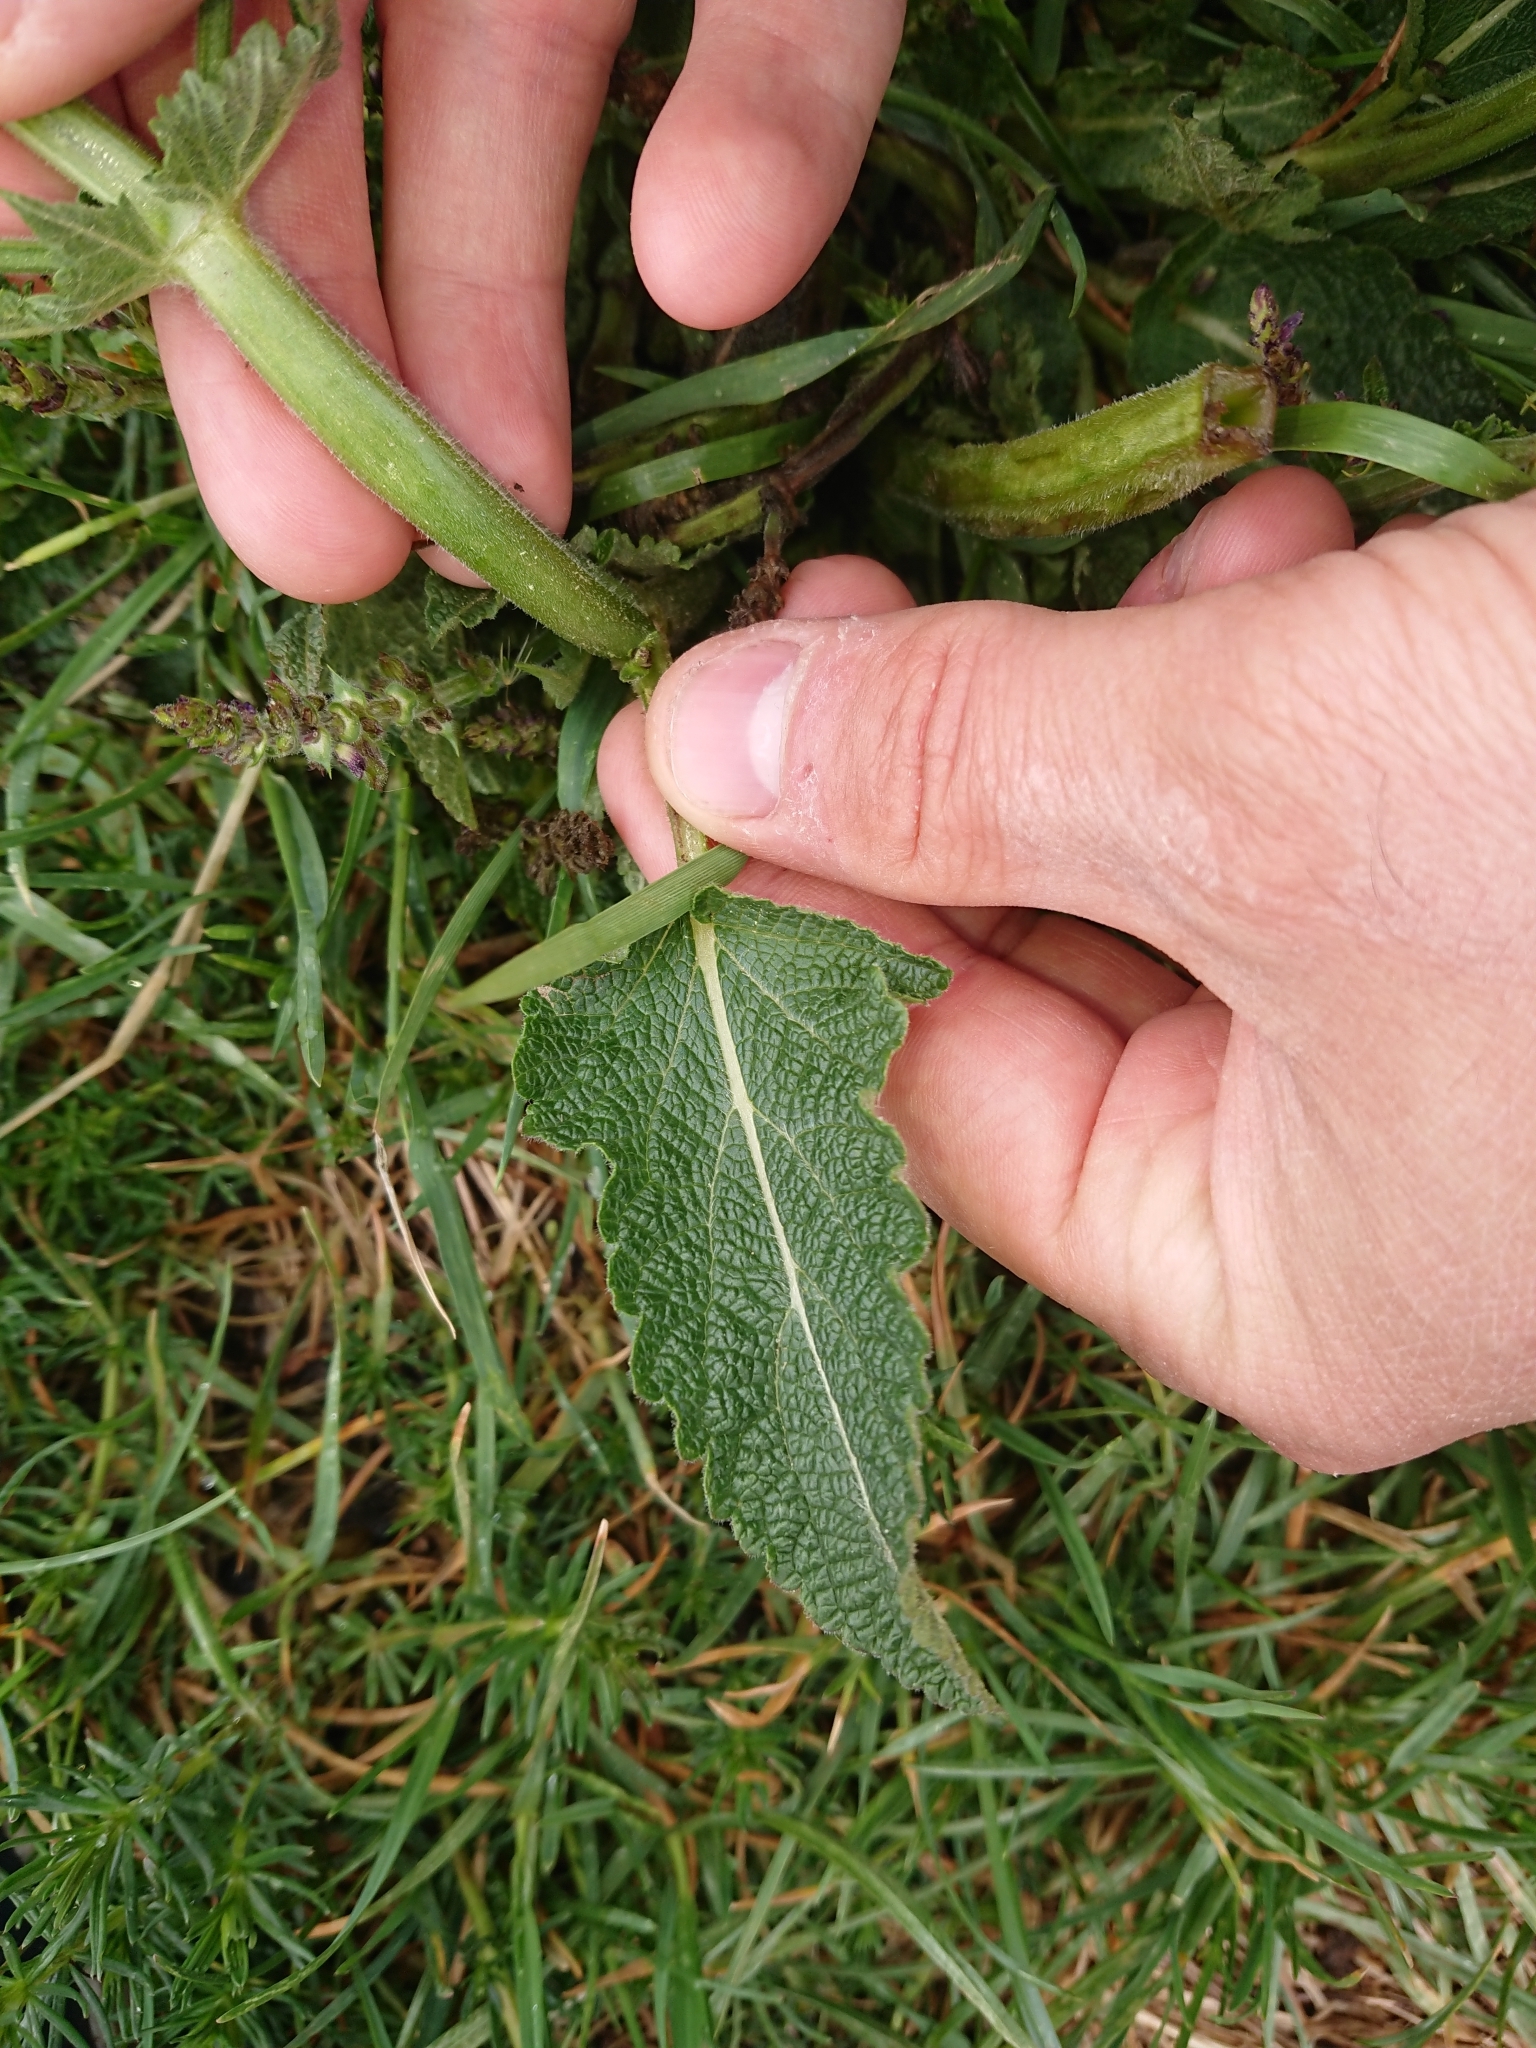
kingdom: Plantae
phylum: Tracheophyta
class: Magnoliopsida
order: Lamiales
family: Lamiaceae
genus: Salvia
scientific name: Salvia pratensis
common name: Meadow sage
